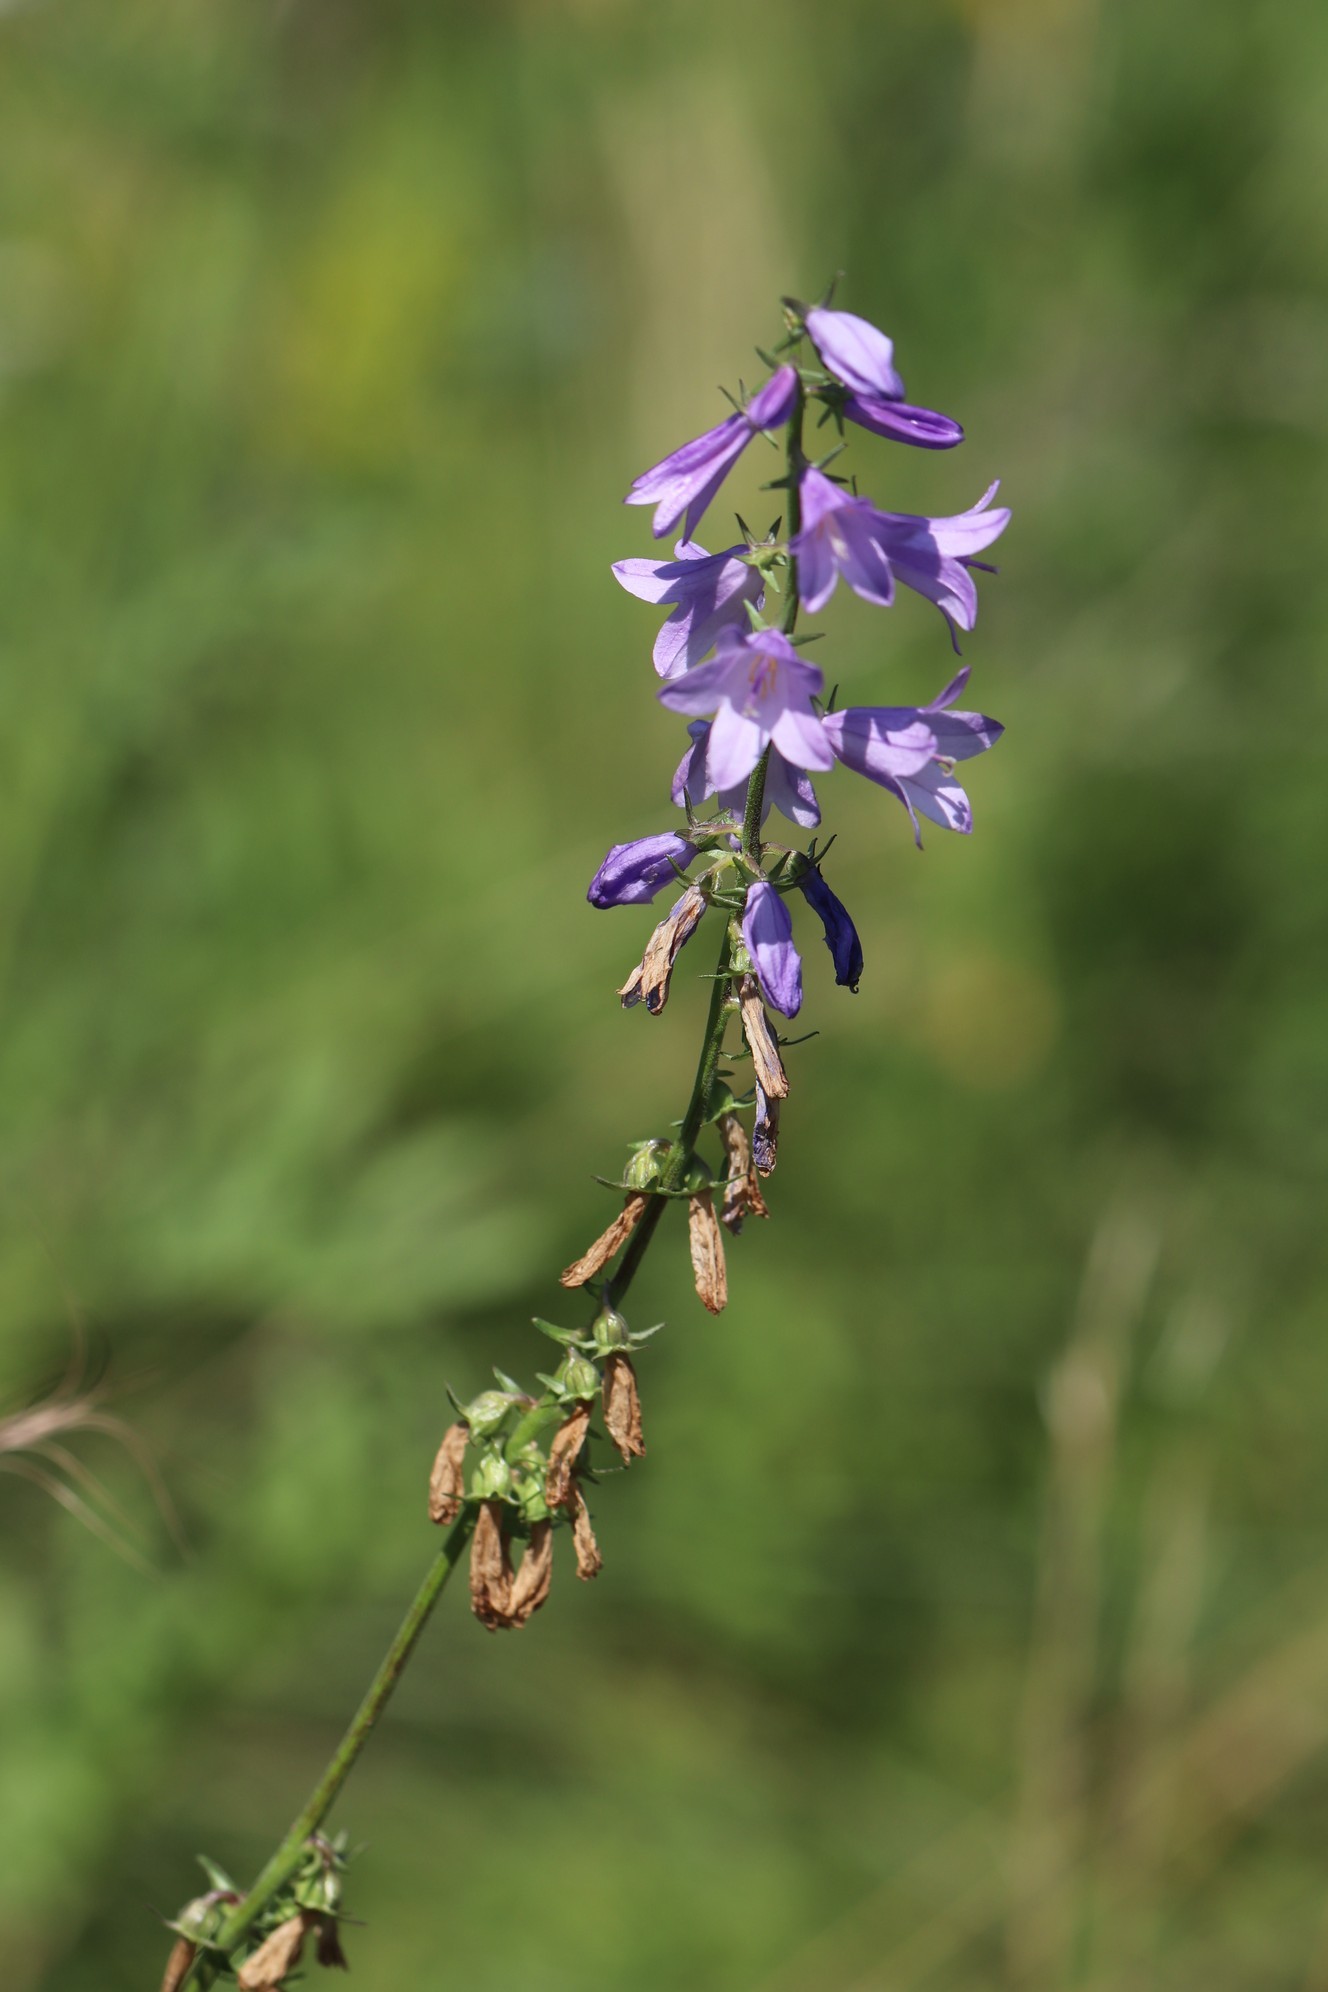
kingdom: Plantae
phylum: Tracheophyta
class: Magnoliopsida
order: Asterales
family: Campanulaceae
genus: Campanula
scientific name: Campanula bononiensis
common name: Pale bellflower
